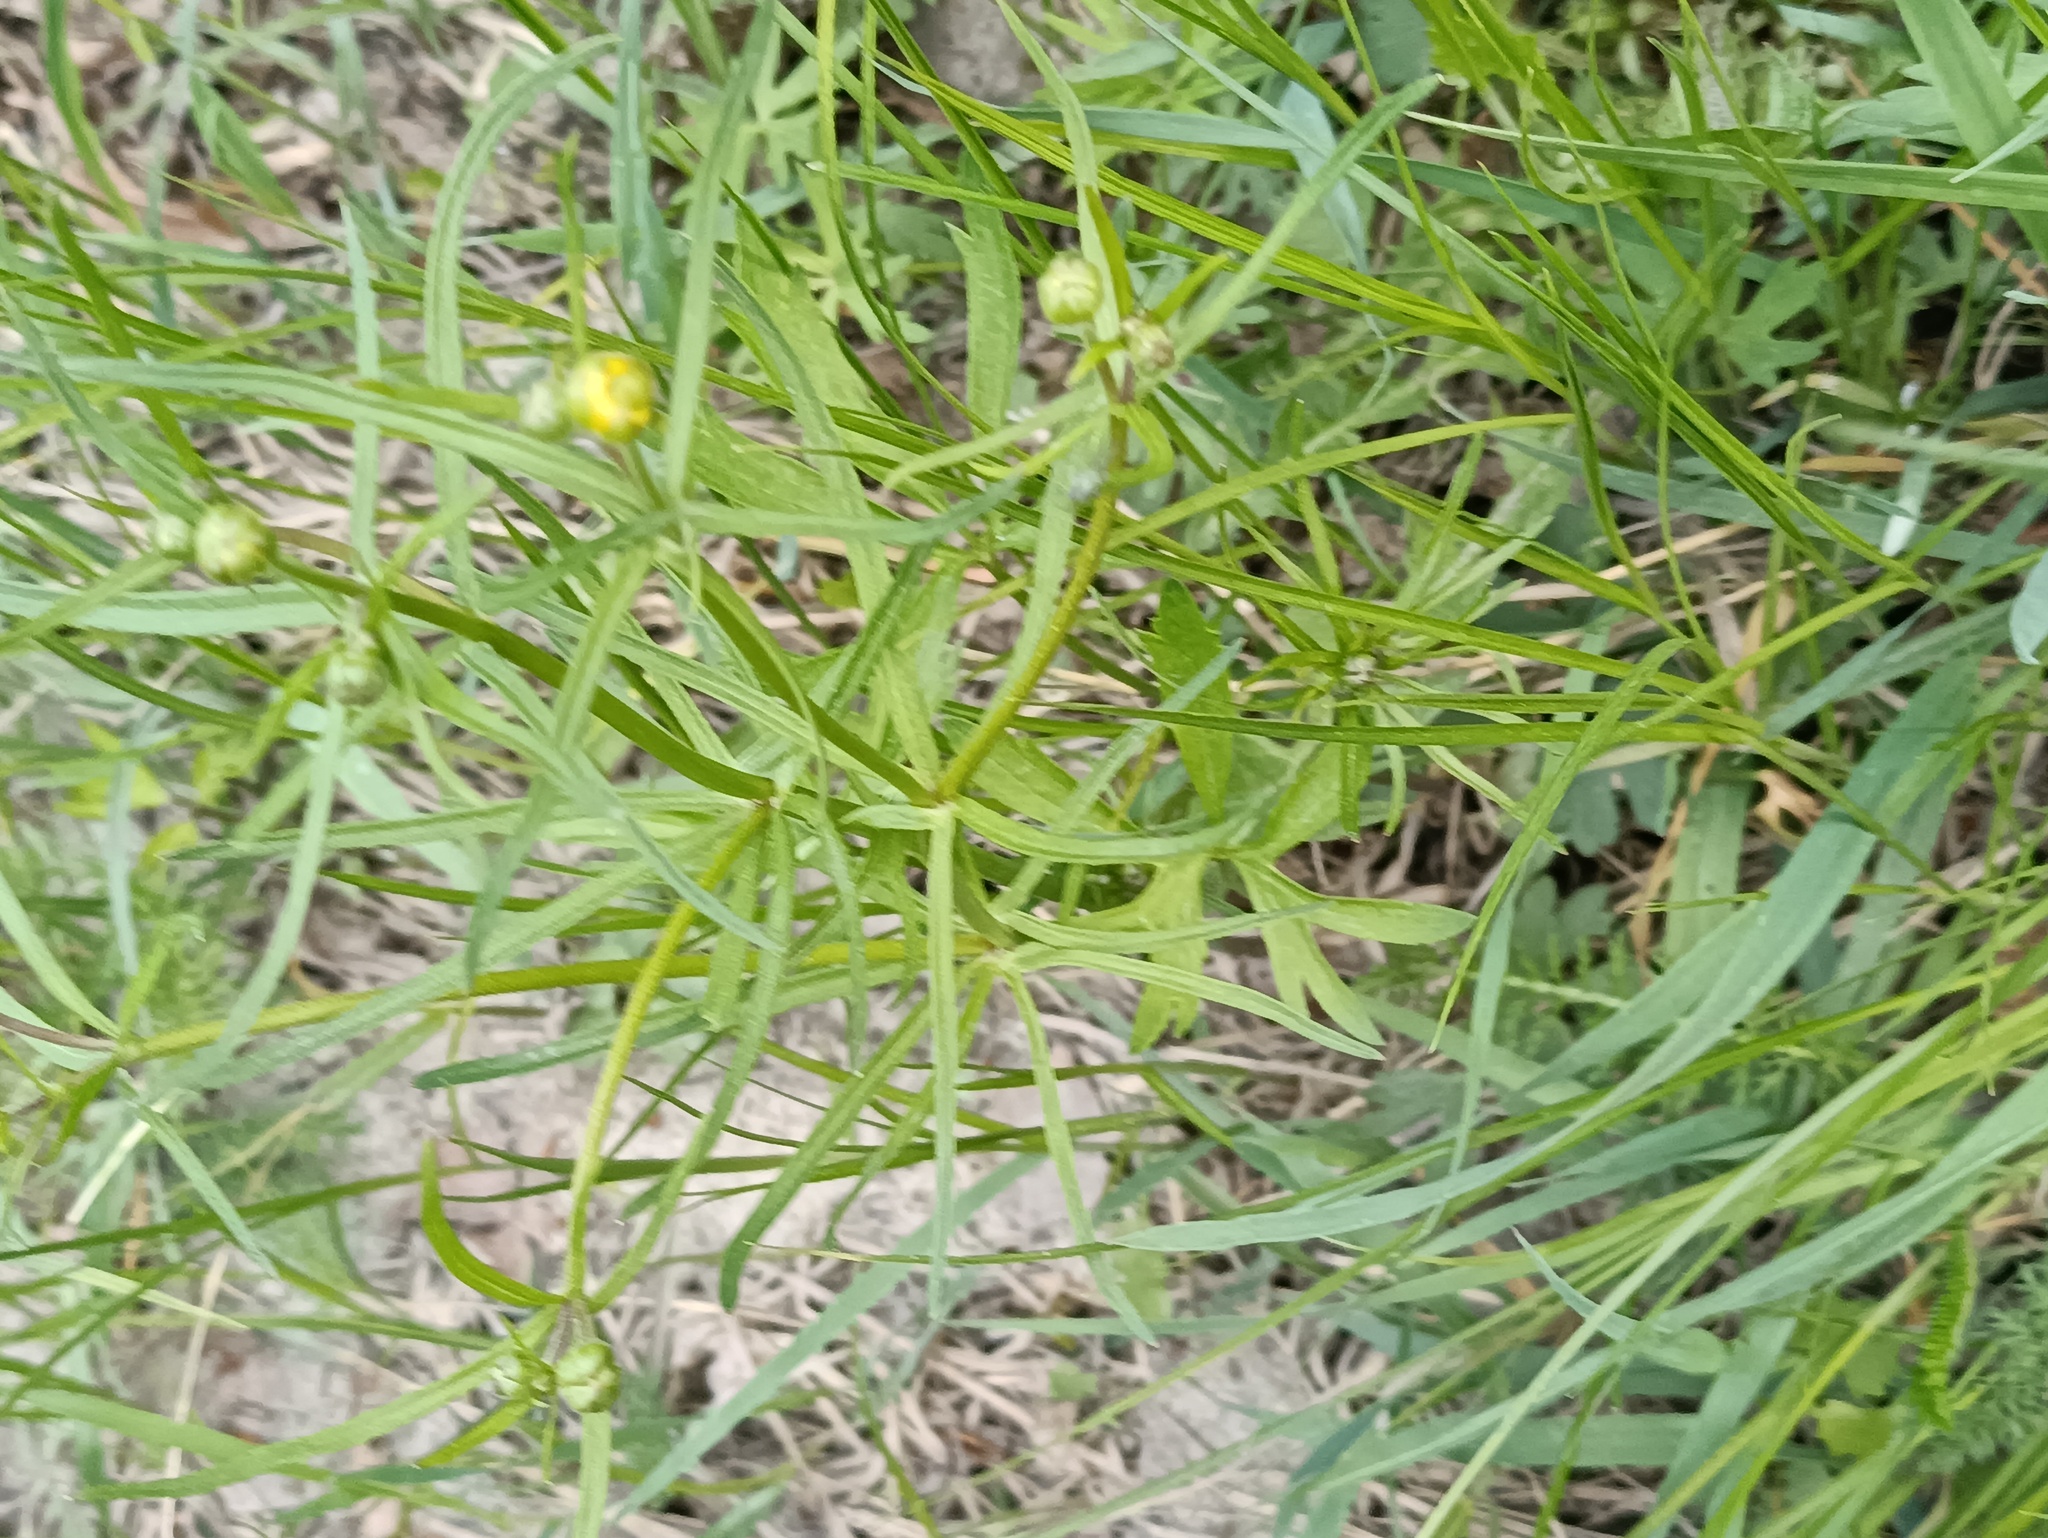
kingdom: Plantae
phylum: Tracheophyta
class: Magnoliopsida
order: Ranunculales
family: Ranunculaceae
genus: Ranunculus
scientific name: Ranunculus auricomus
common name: Goldilocks buttercup
